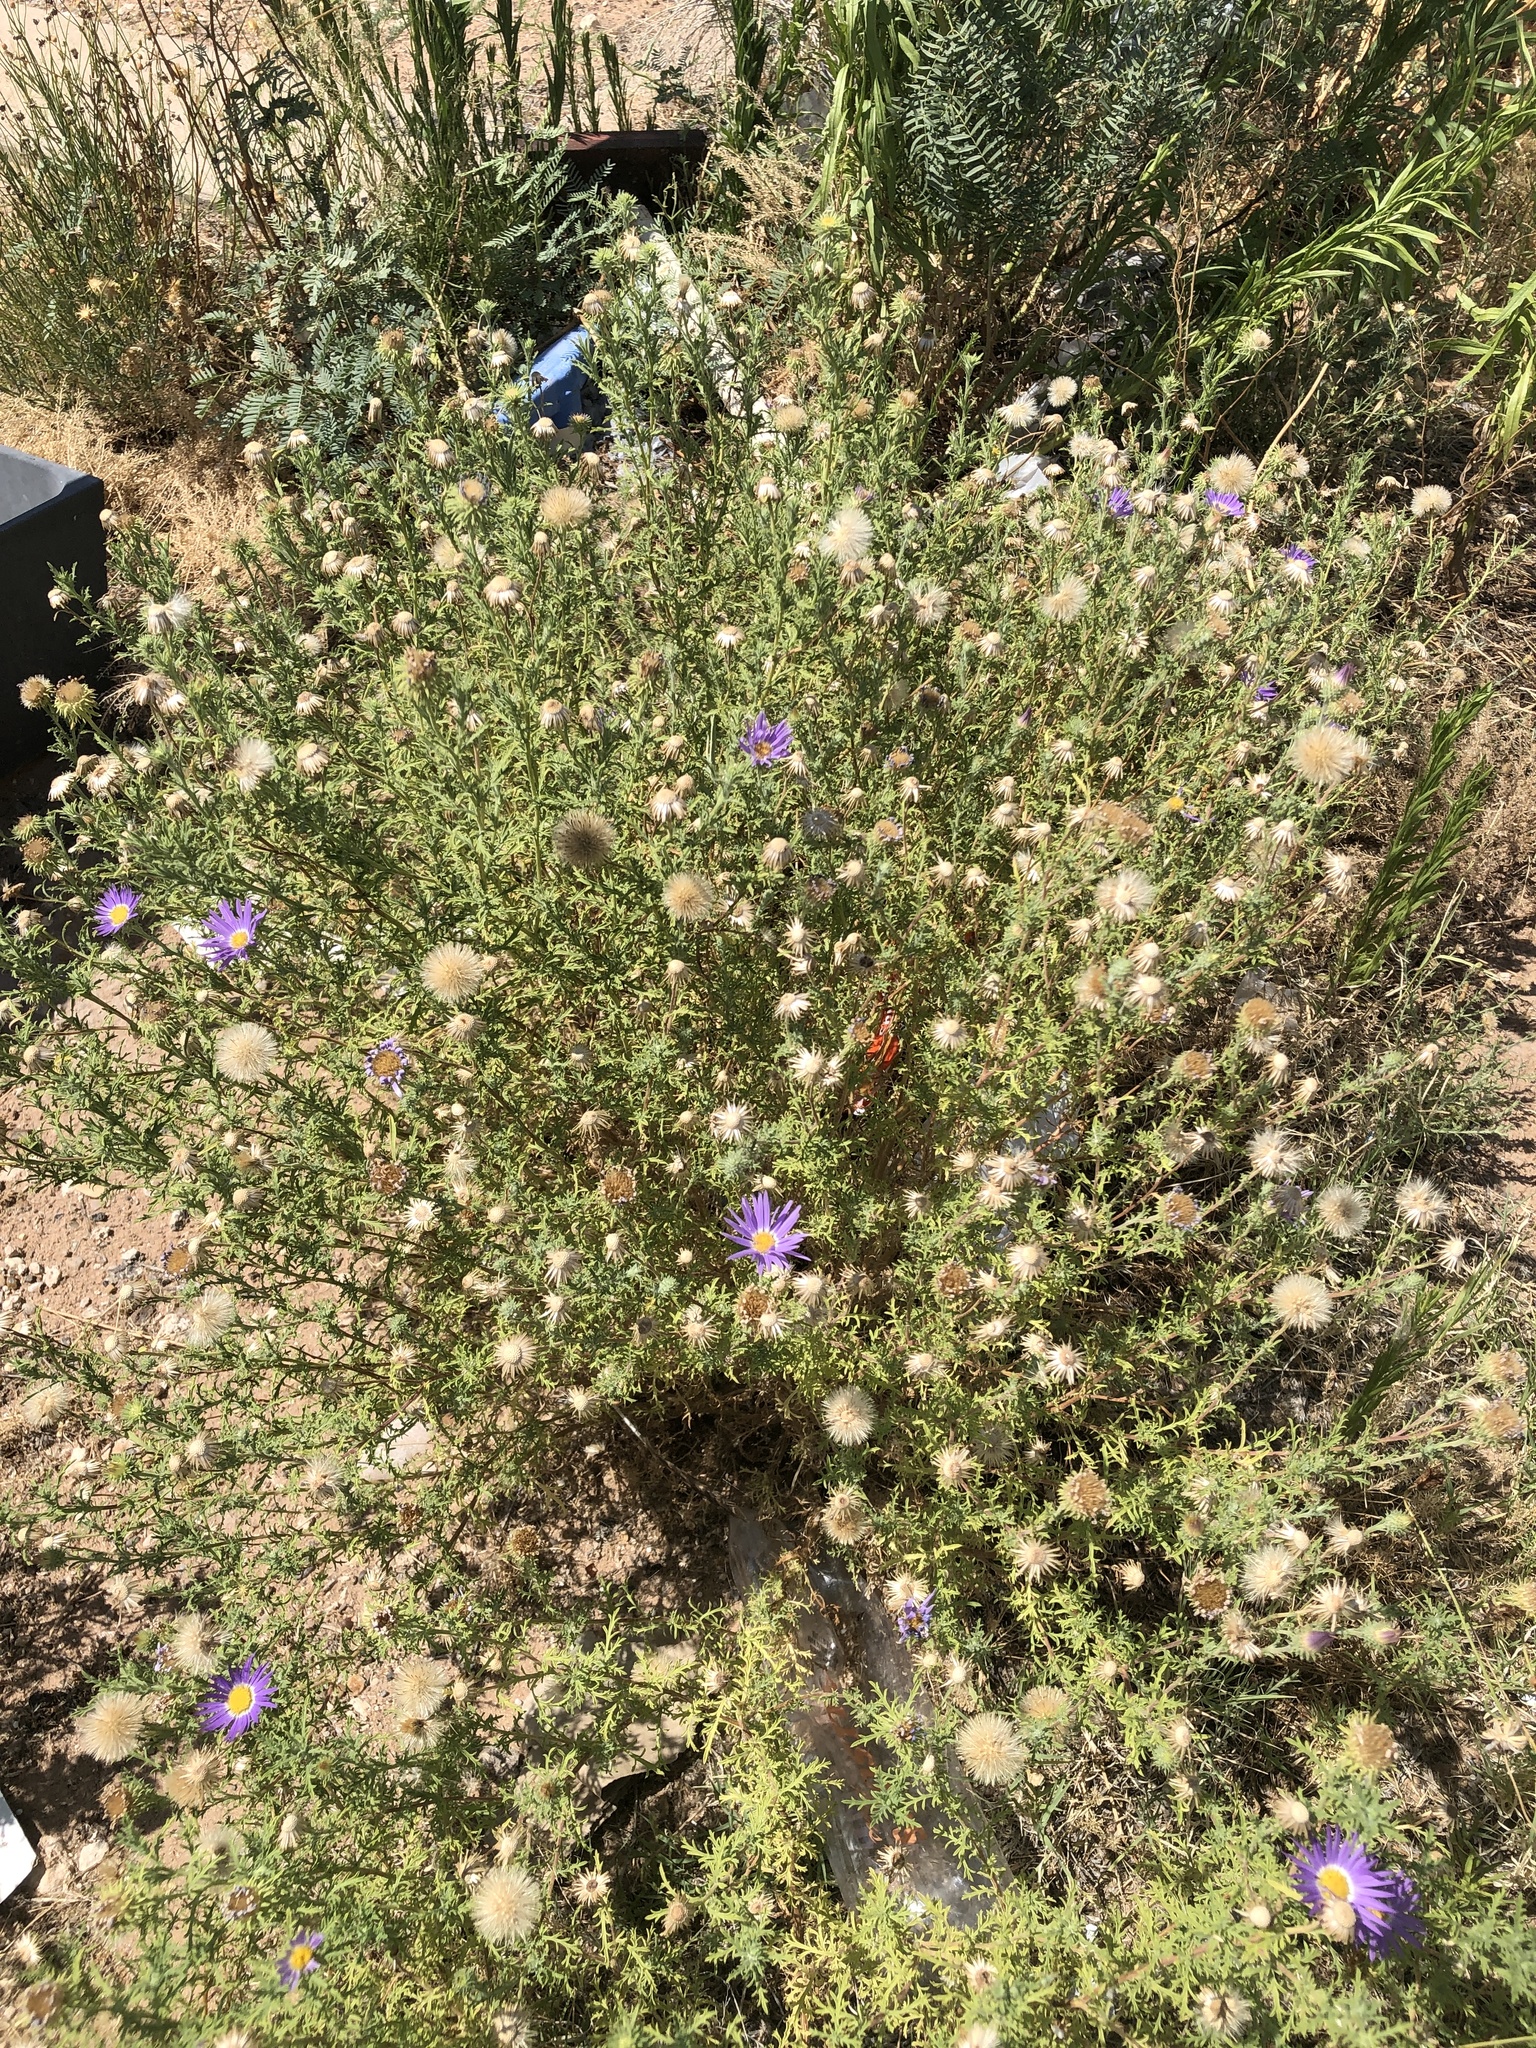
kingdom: Plantae
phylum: Tracheophyta
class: Magnoliopsida
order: Asterales
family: Asteraceae
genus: Machaeranthera
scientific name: Machaeranthera tanacetifolia
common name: Tansy-aster
